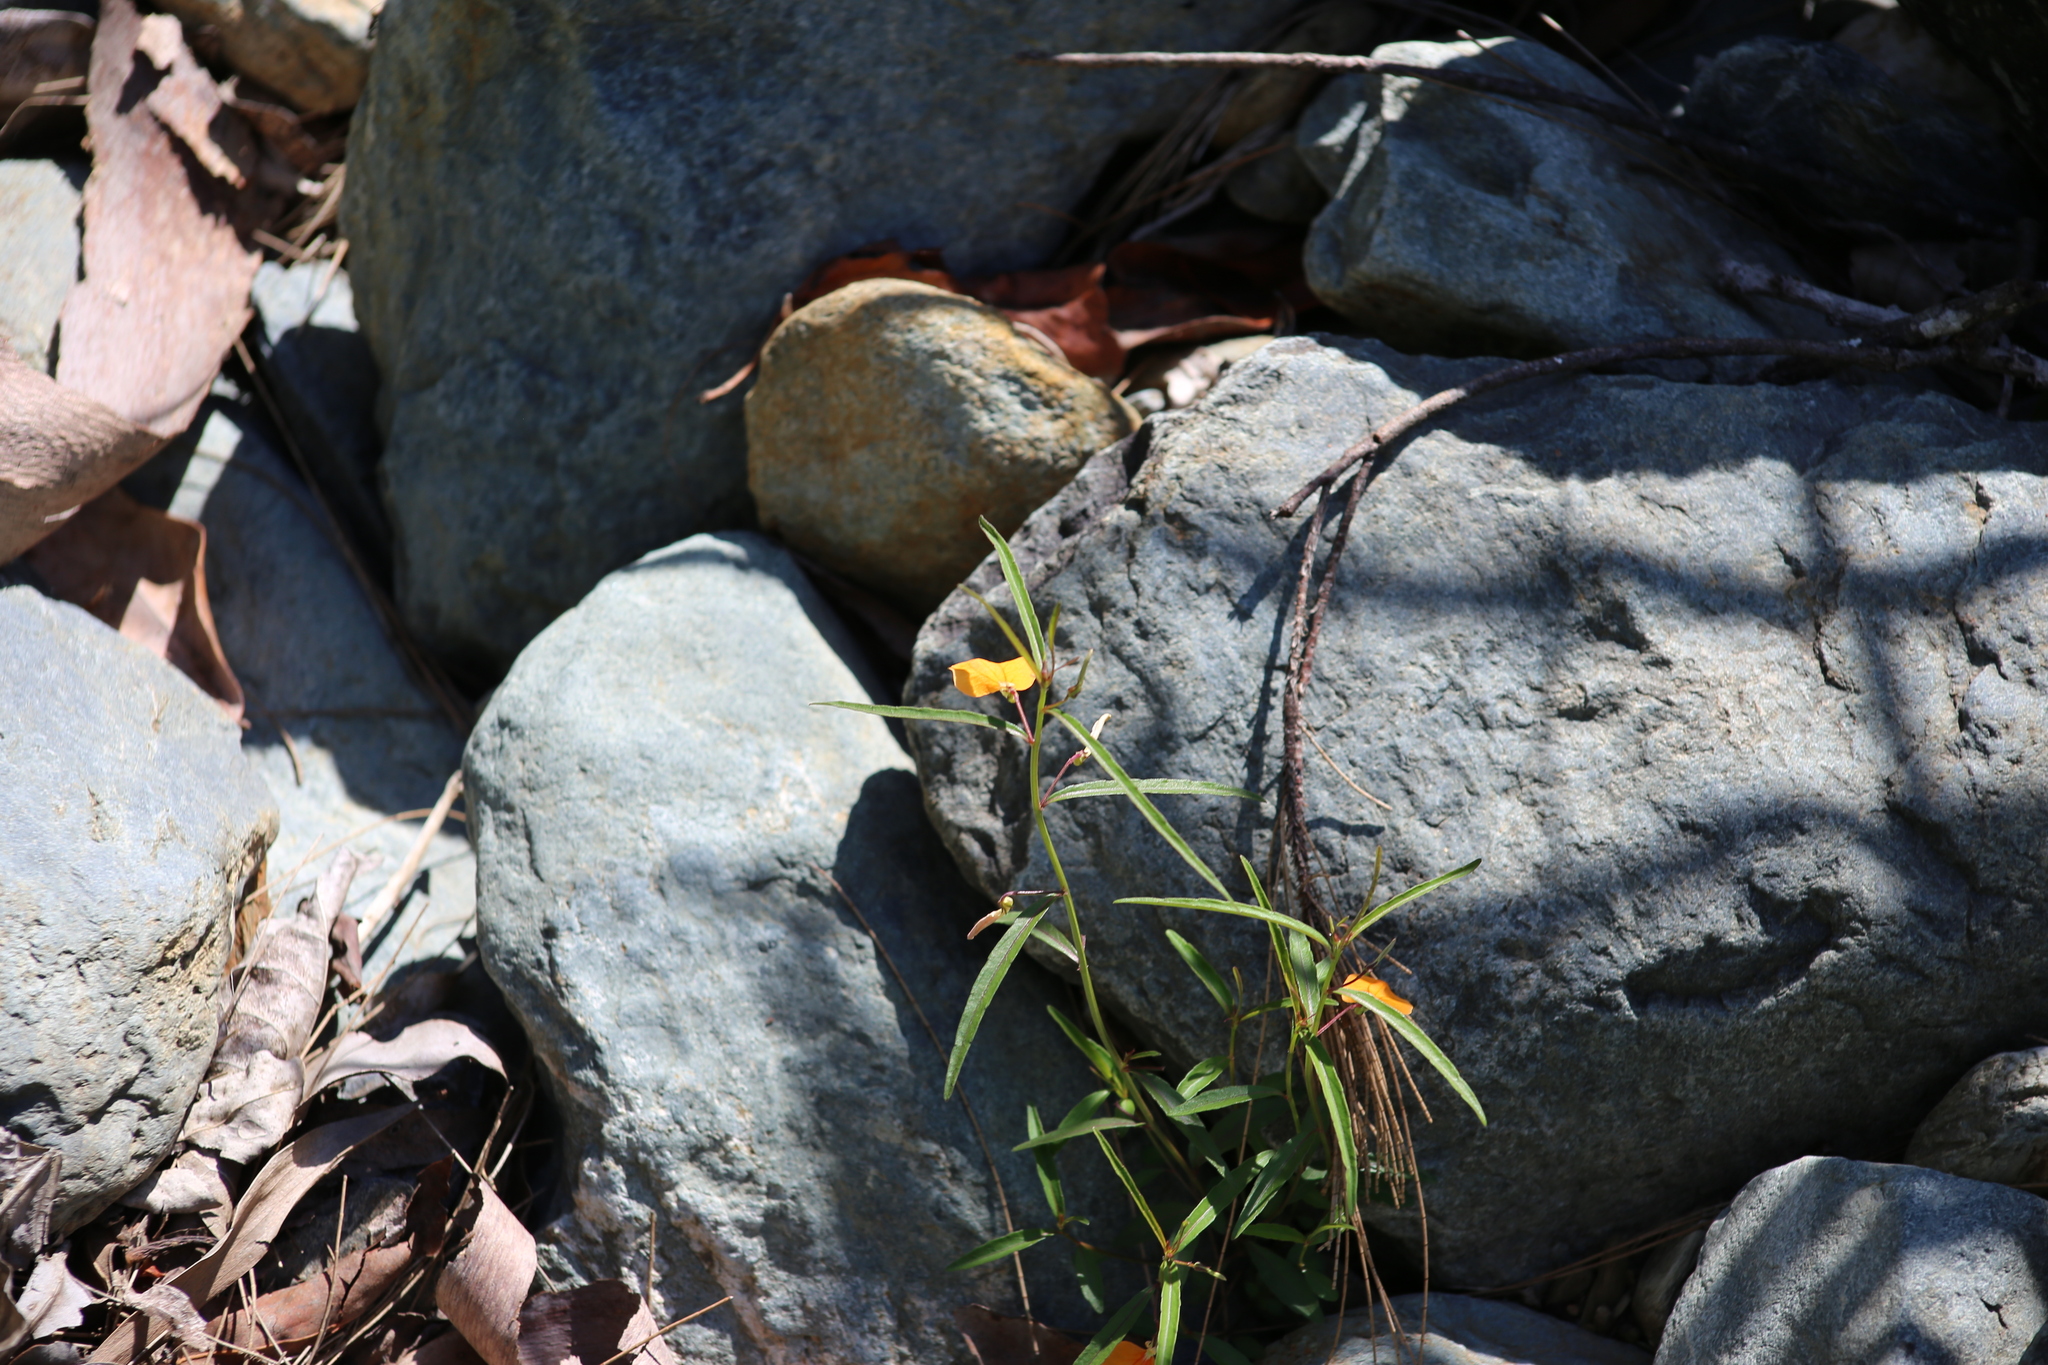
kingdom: Plantae
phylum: Tracheophyta
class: Magnoliopsida
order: Malpighiales
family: Violaceae
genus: Pigea
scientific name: Pigea stellarioides
